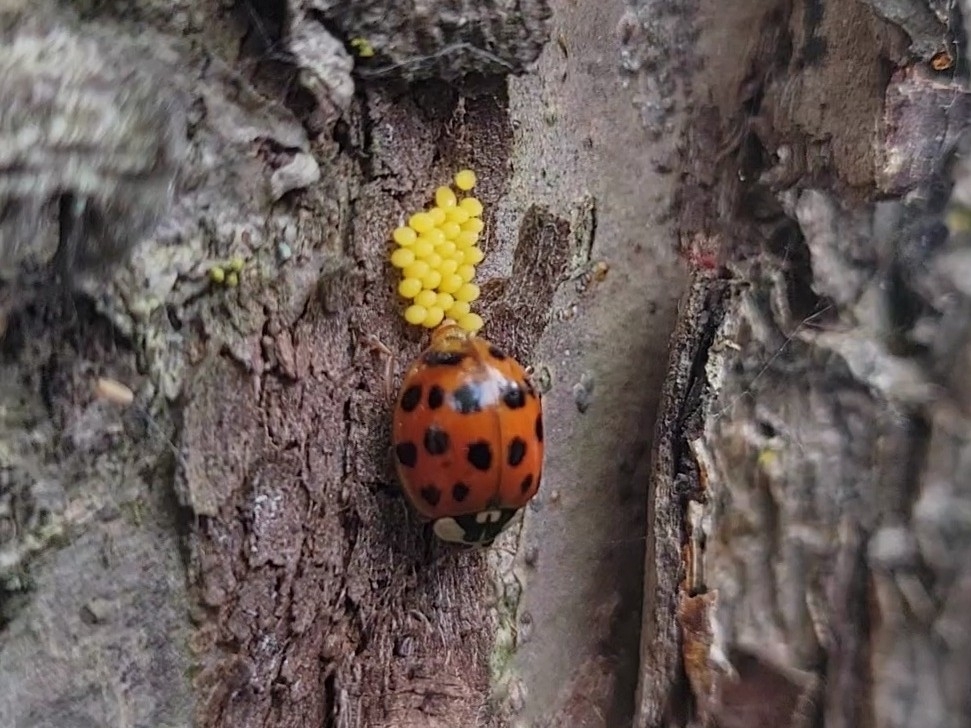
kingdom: Animalia
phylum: Arthropoda
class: Insecta
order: Coleoptera
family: Coccinellidae
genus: Harmonia
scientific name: Harmonia axyridis
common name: Harlequin ladybird
